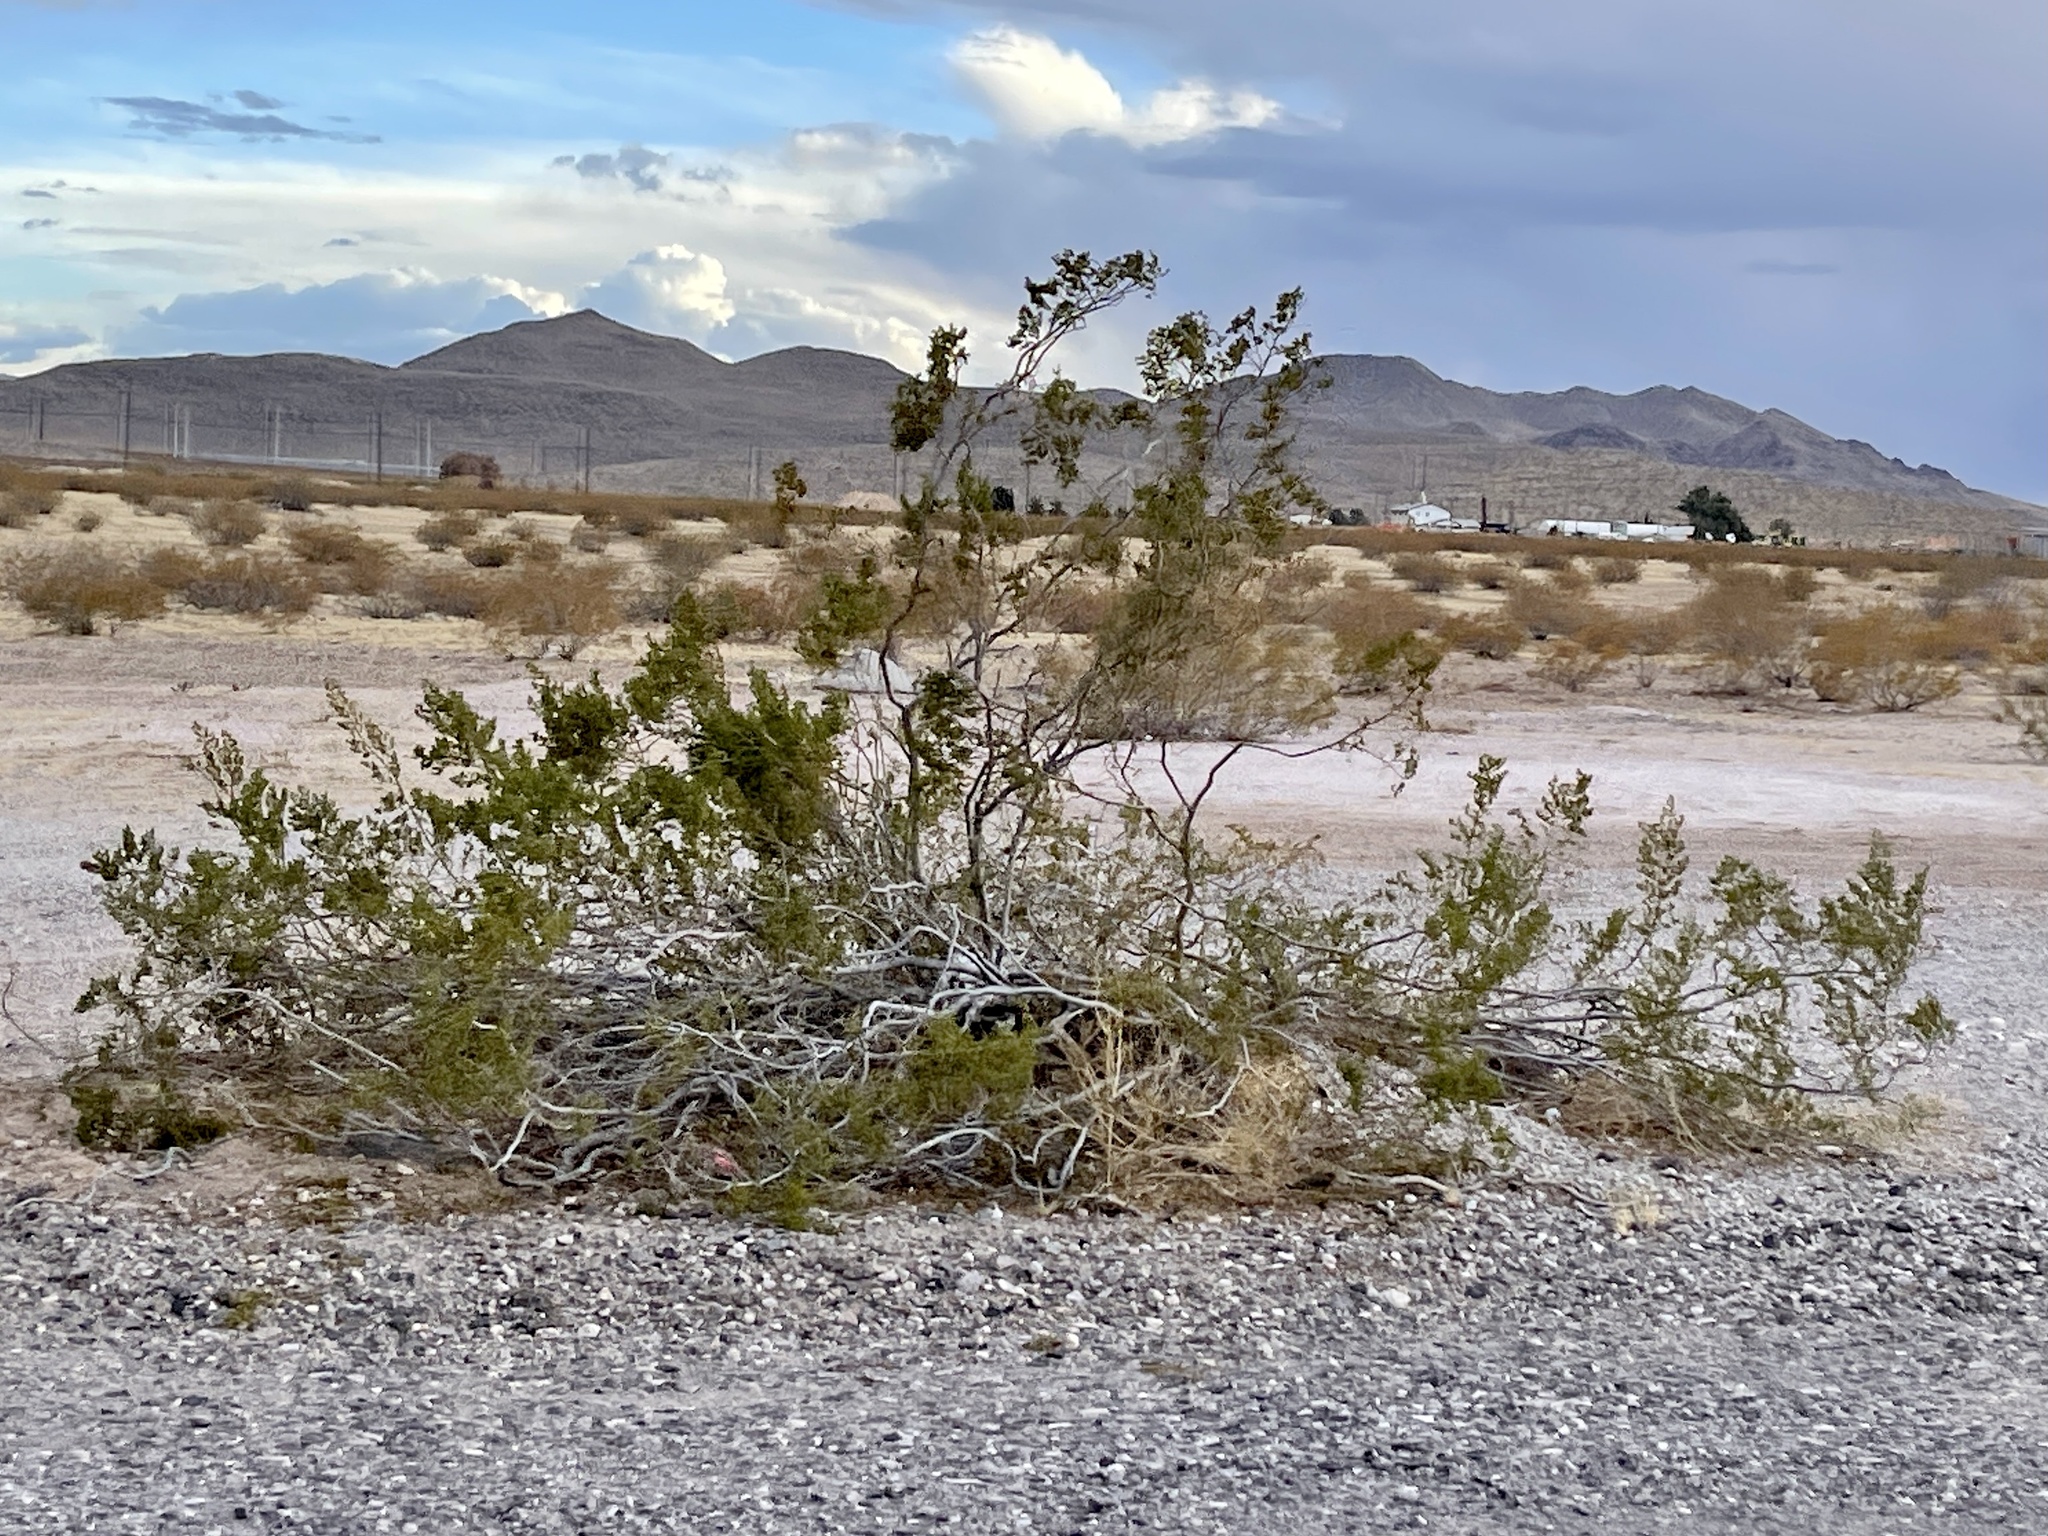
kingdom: Plantae
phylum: Tracheophyta
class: Magnoliopsida
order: Zygophyllales
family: Zygophyllaceae
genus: Larrea
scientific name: Larrea tridentata
